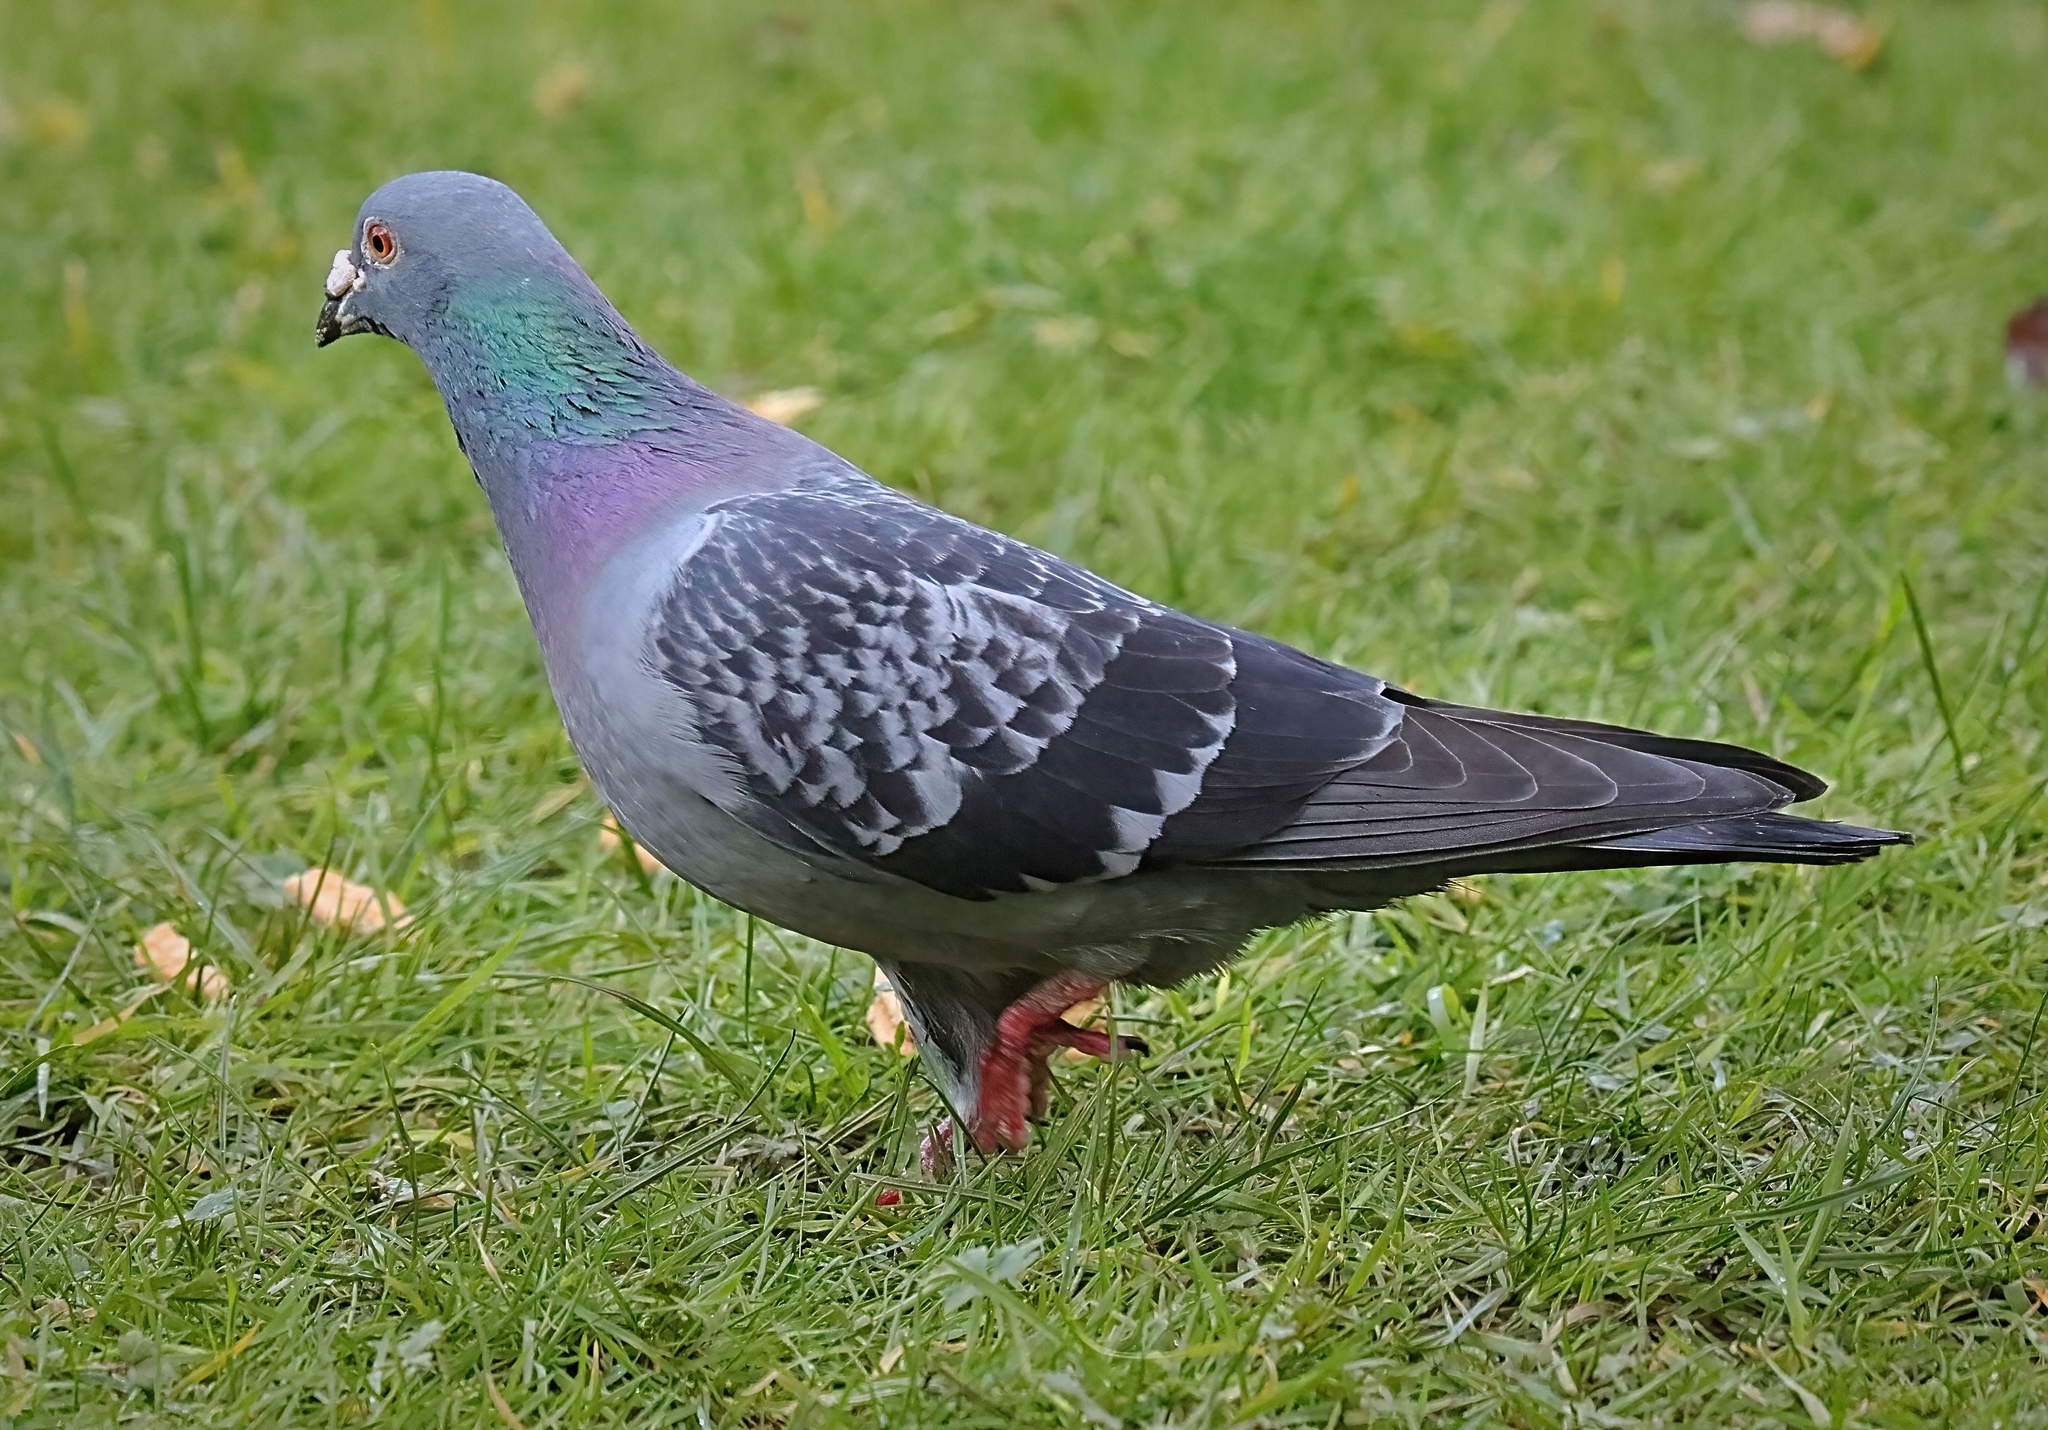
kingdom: Animalia
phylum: Chordata
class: Aves
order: Columbiformes
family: Columbidae
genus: Columba
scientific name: Columba livia
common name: Rock pigeon
